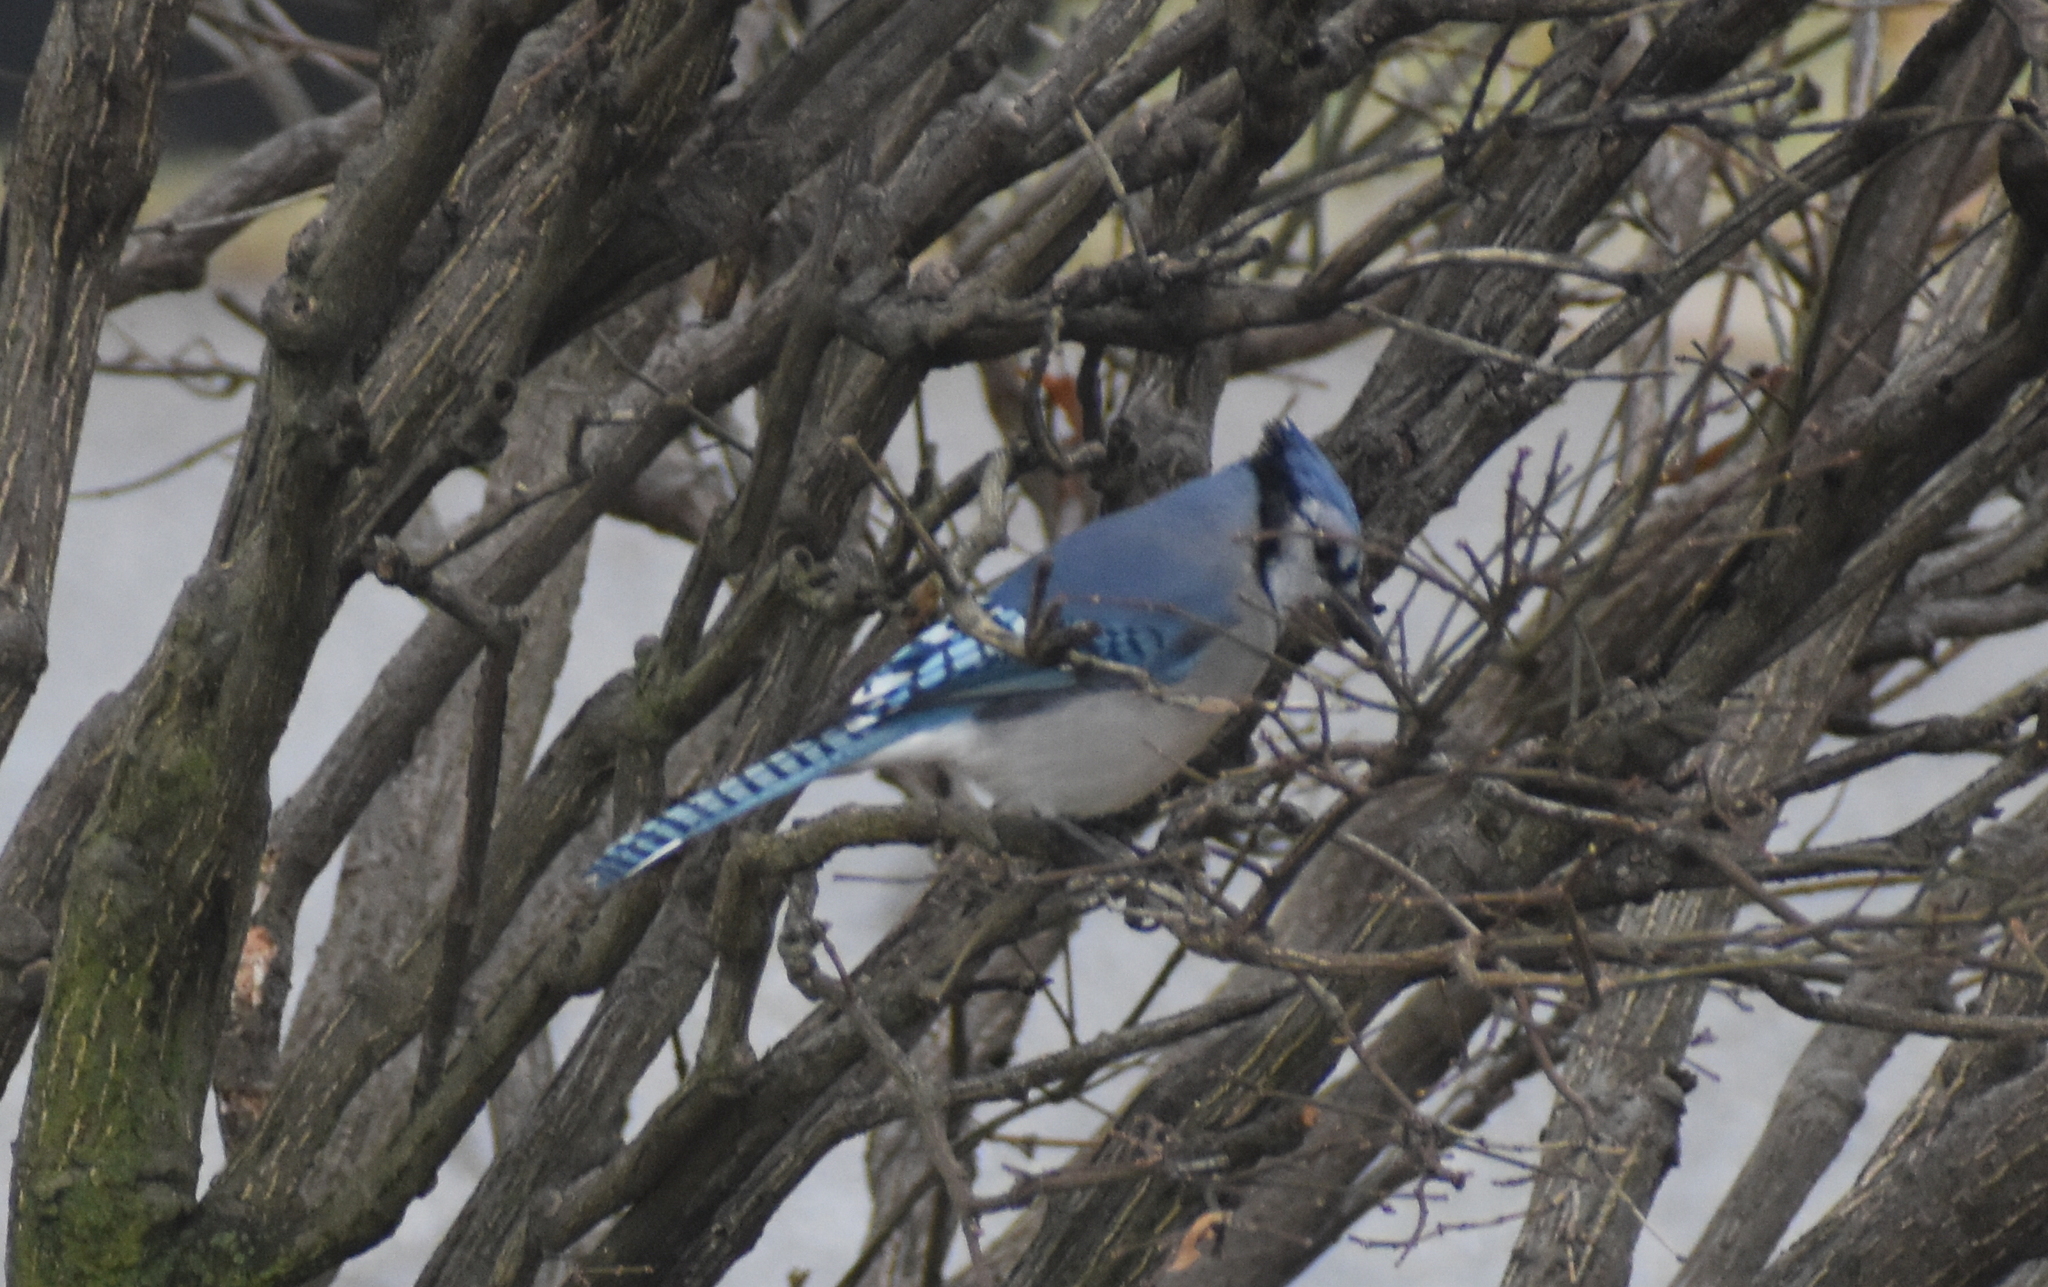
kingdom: Animalia
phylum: Chordata
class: Aves
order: Passeriformes
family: Corvidae
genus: Cyanocitta
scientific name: Cyanocitta cristata
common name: Blue jay
